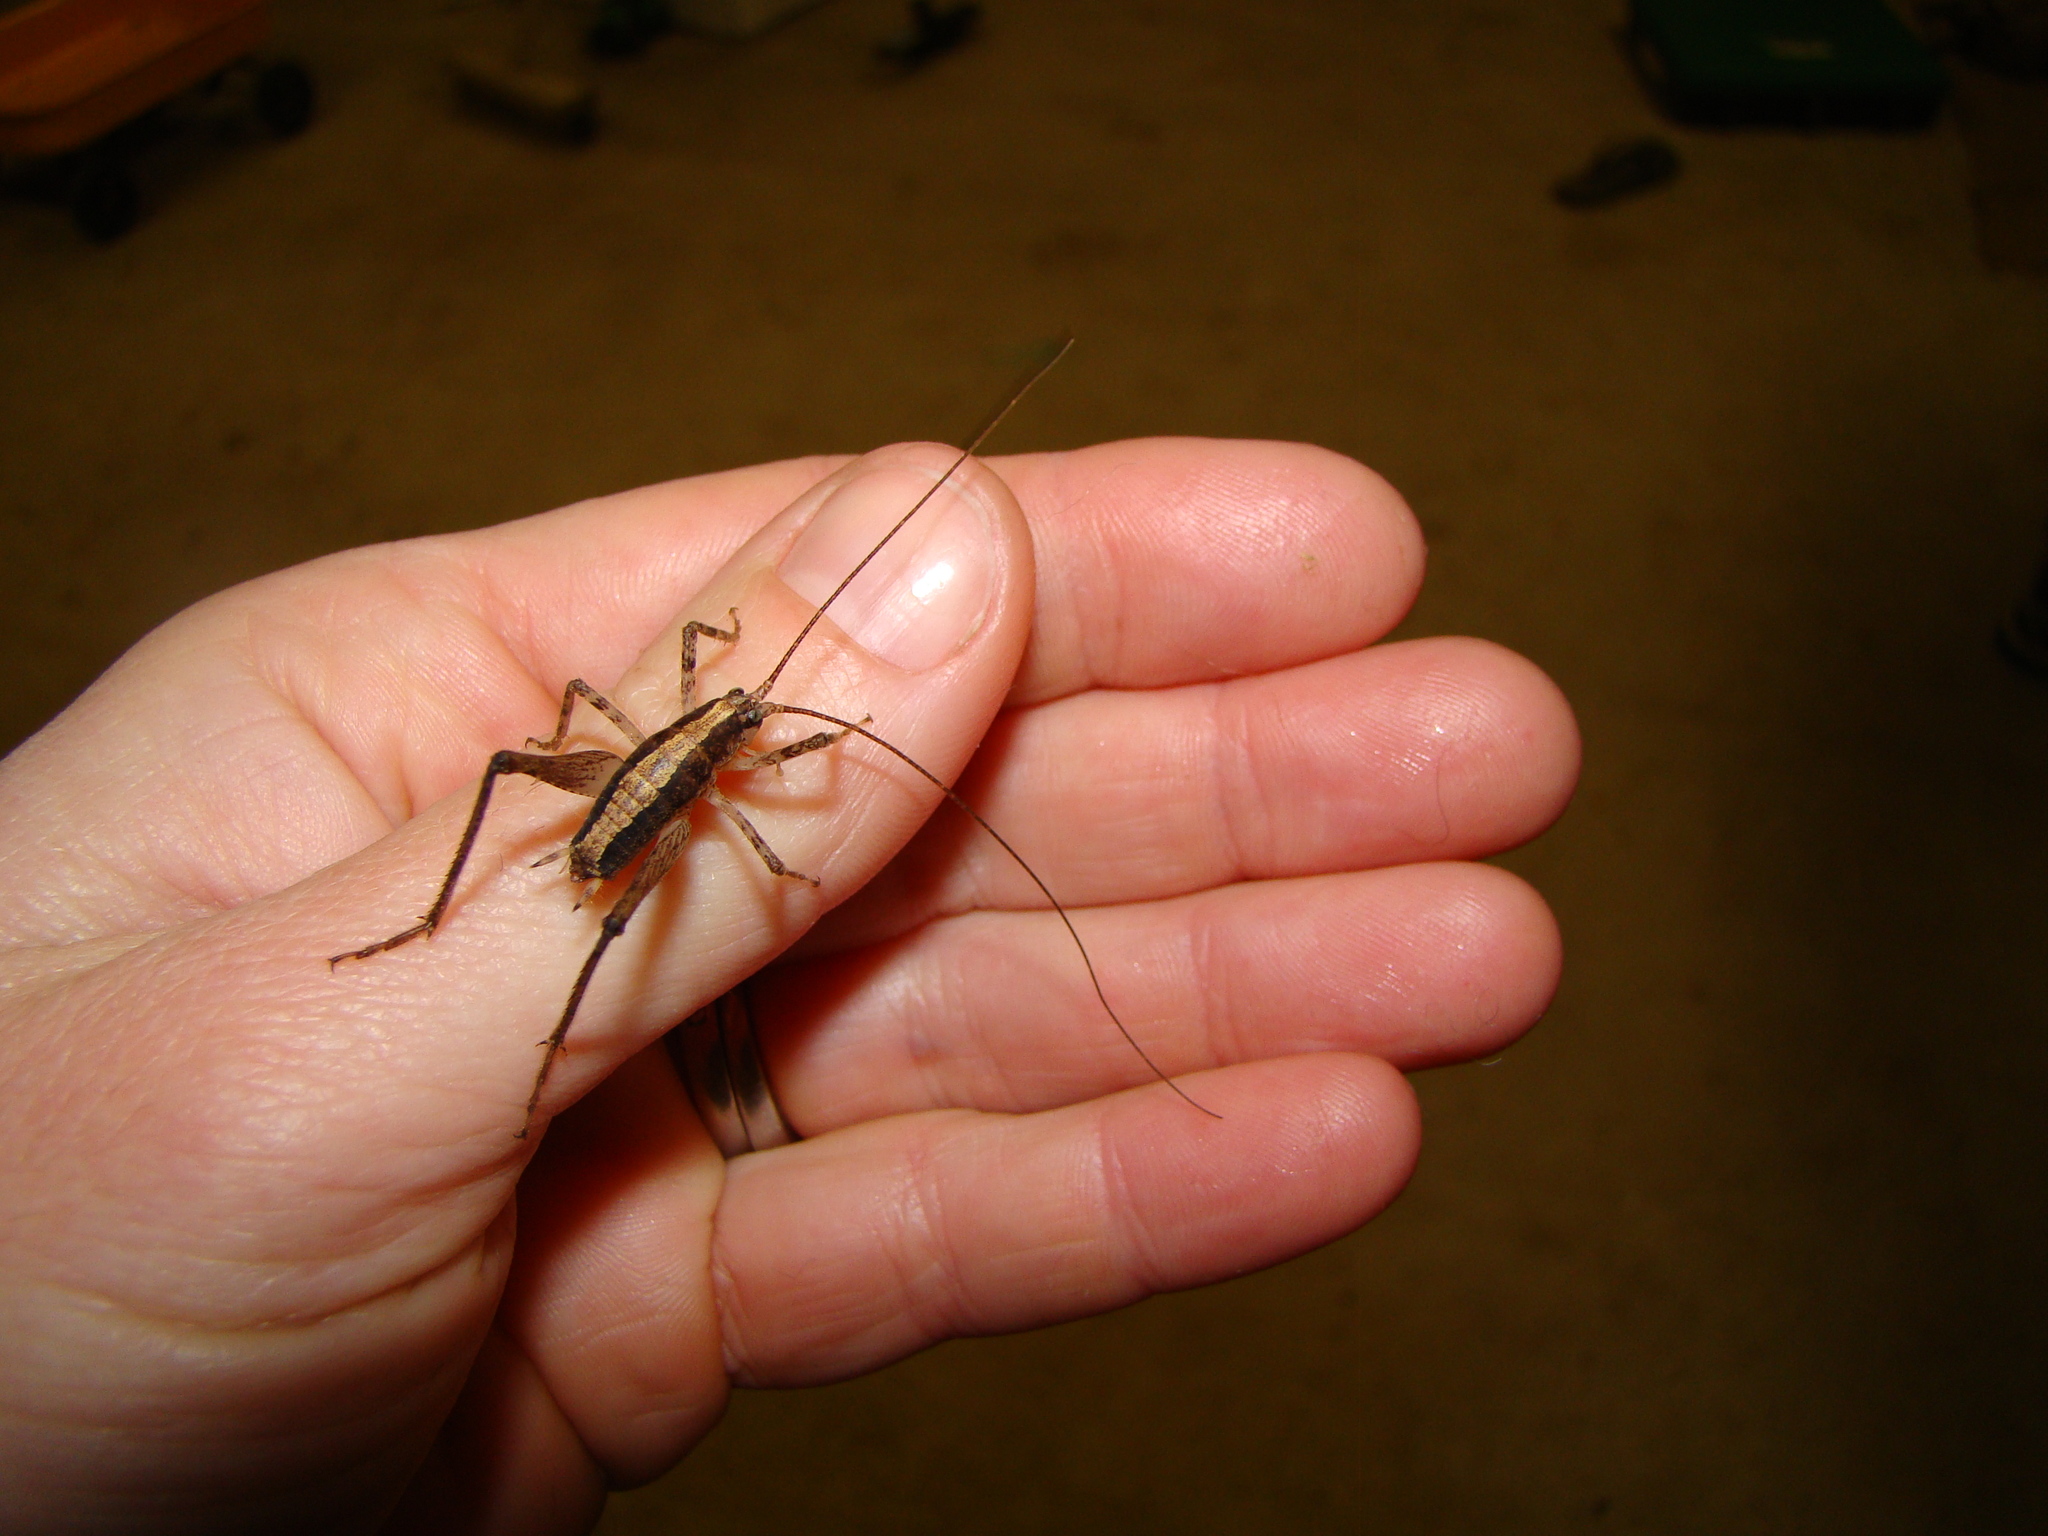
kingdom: Animalia
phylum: Arthropoda
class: Insecta
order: Orthoptera
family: Rhaphidophoridae
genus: Isoplectron
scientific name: Isoplectron armatum
